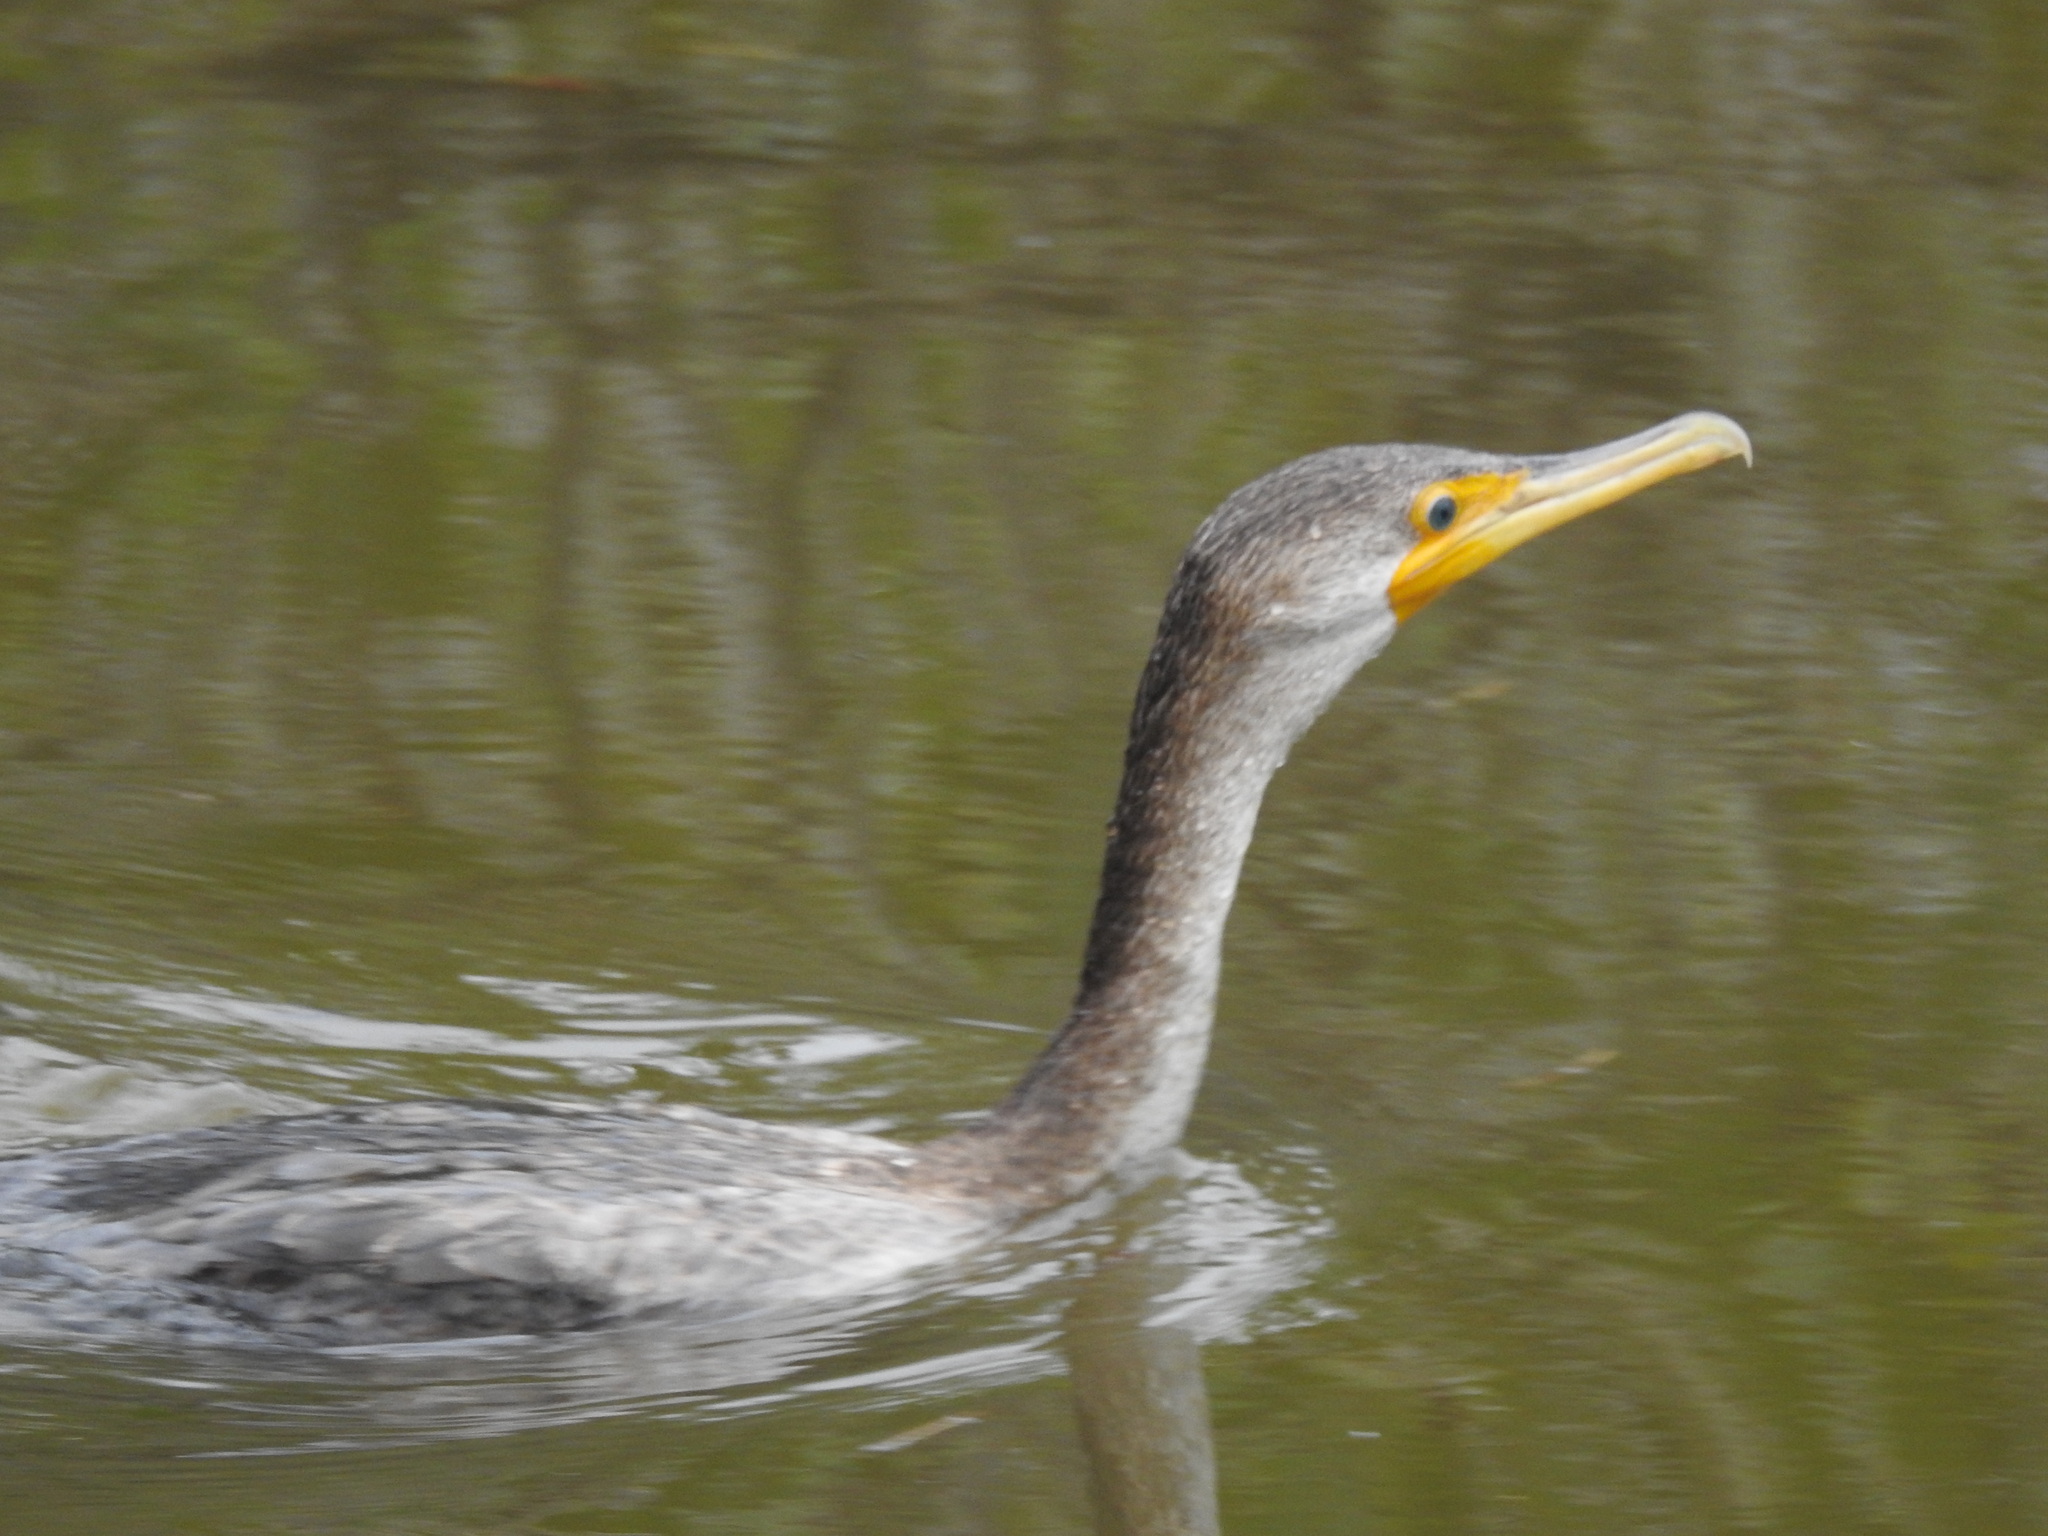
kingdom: Animalia
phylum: Chordata
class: Aves
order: Suliformes
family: Phalacrocoracidae
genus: Phalacrocorax
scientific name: Phalacrocorax auritus
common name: Double-crested cormorant
